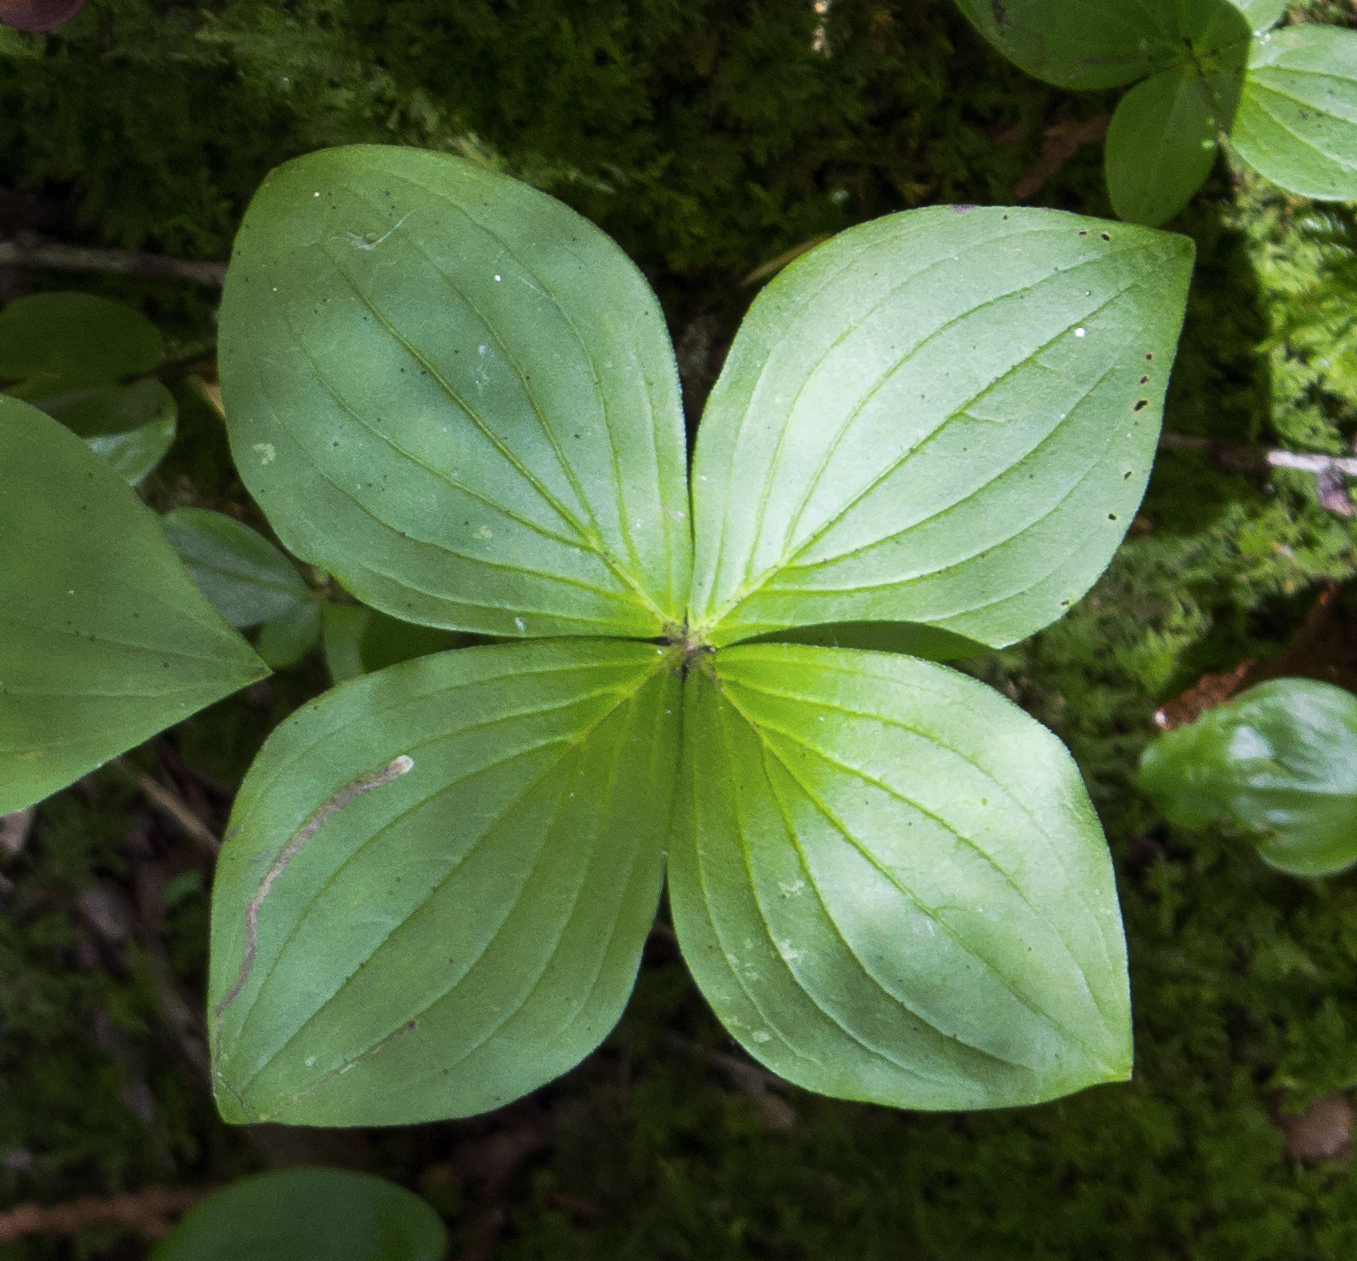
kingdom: Plantae
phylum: Tracheophyta
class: Magnoliopsida
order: Cornales
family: Cornaceae
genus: Cornus
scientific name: Cornus canadensis
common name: Creeping dogwood
